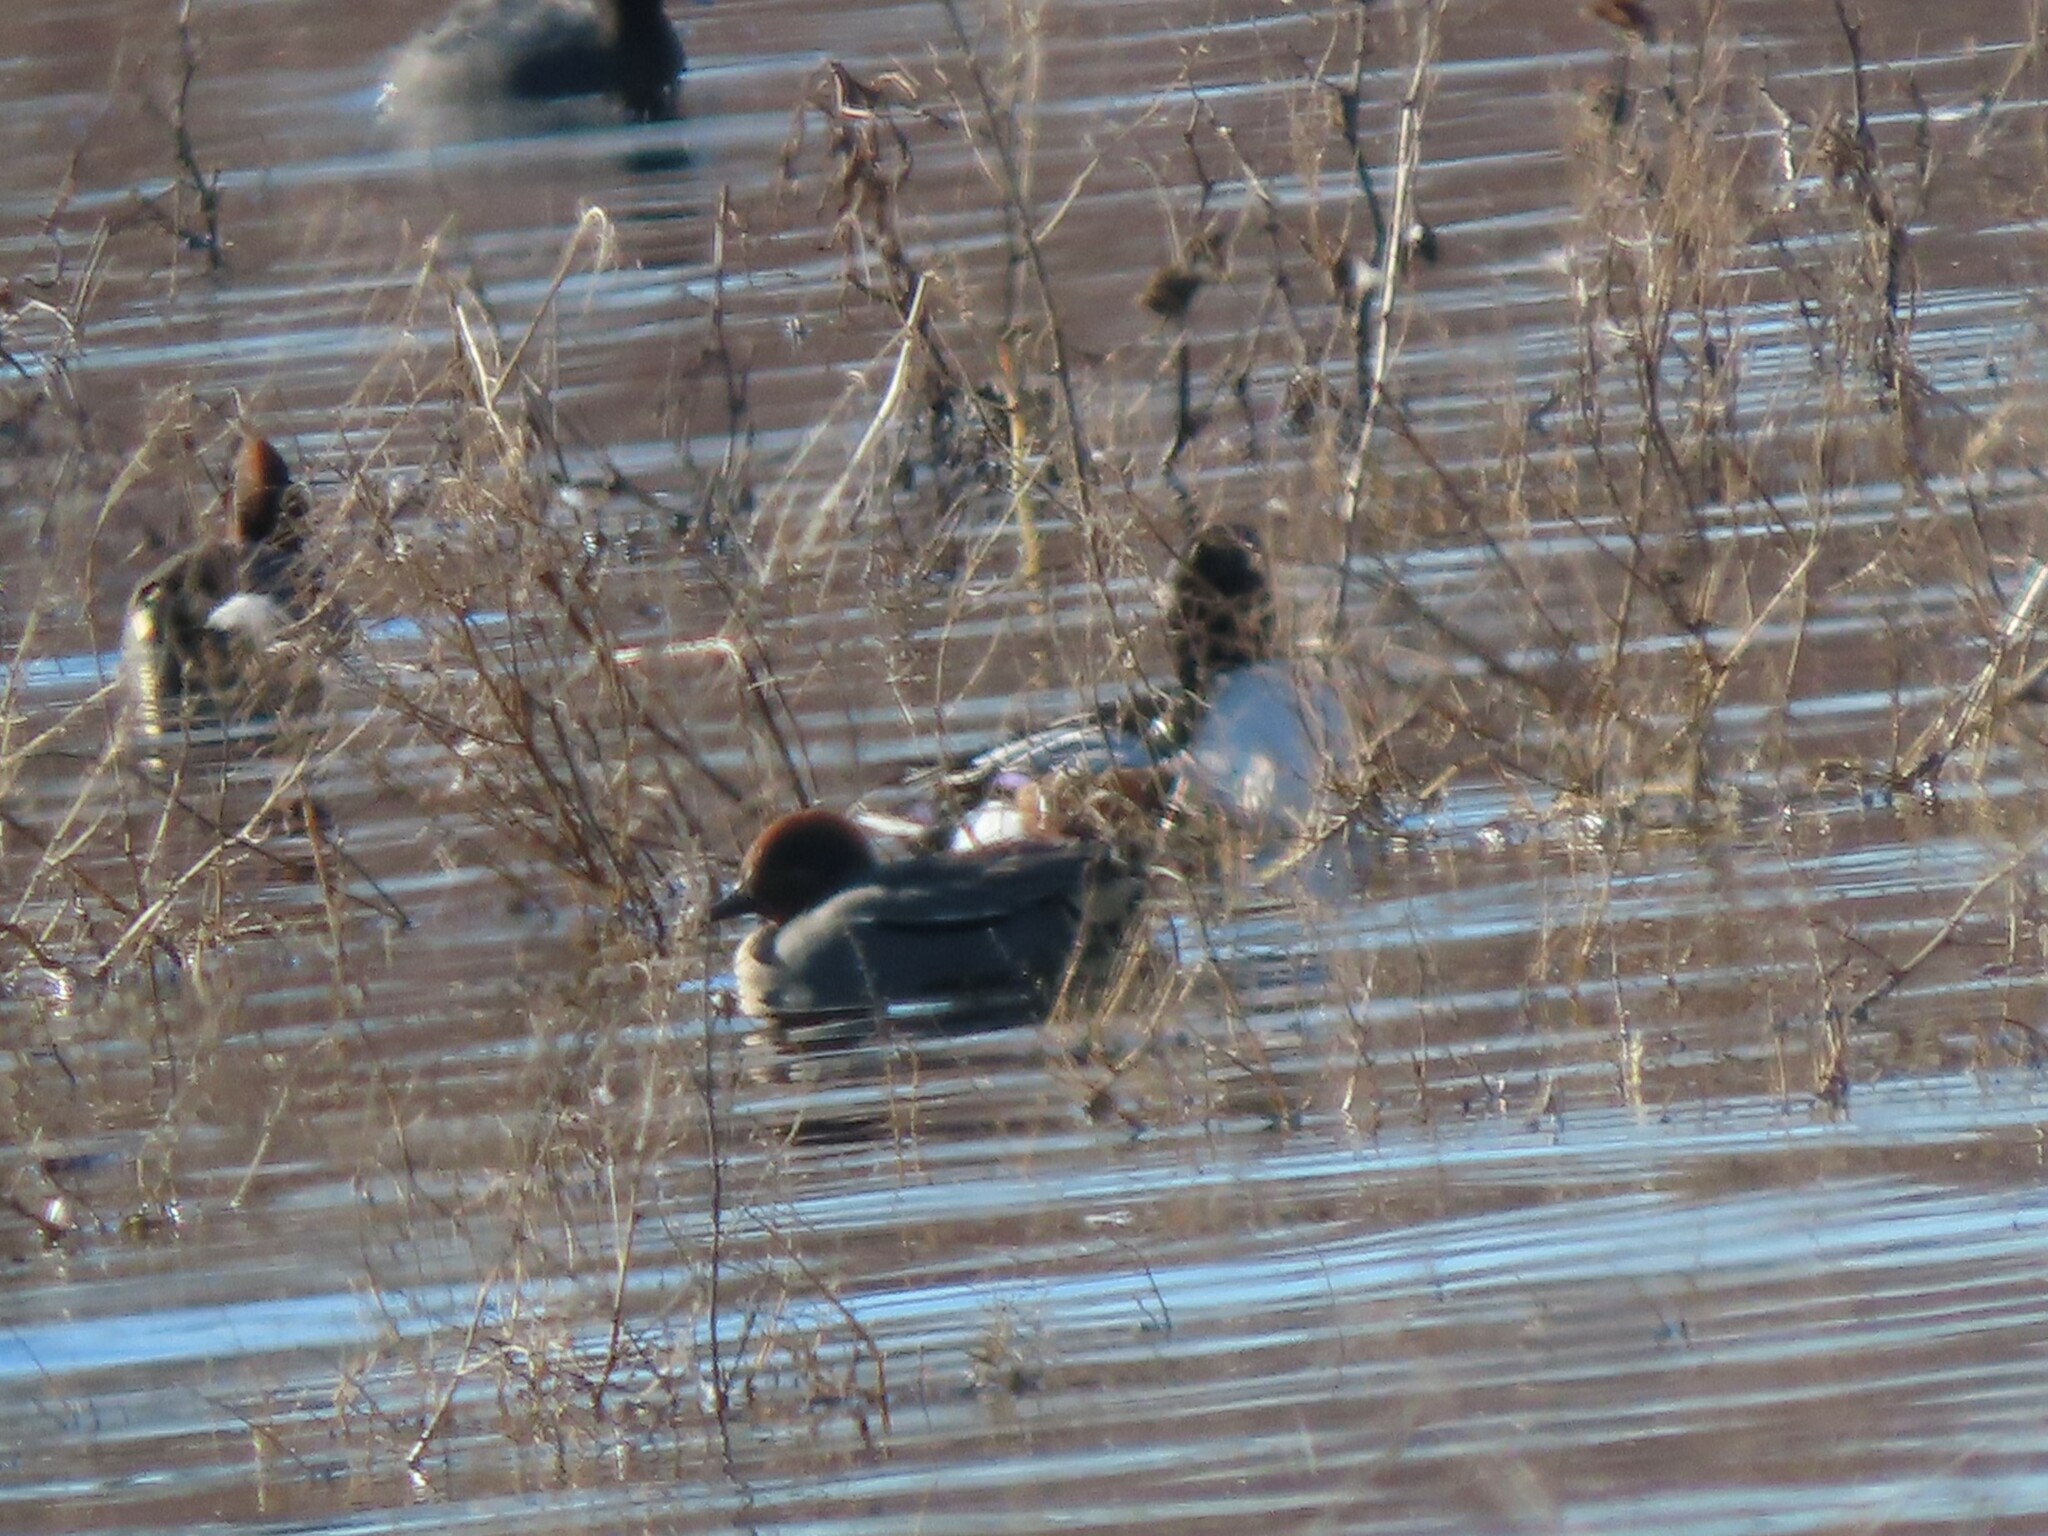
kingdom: Animalia
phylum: Chordata
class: Aves
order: Anseriformes
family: Anatidae
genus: Anas
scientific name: Anas crecca
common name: Eurasian teal
